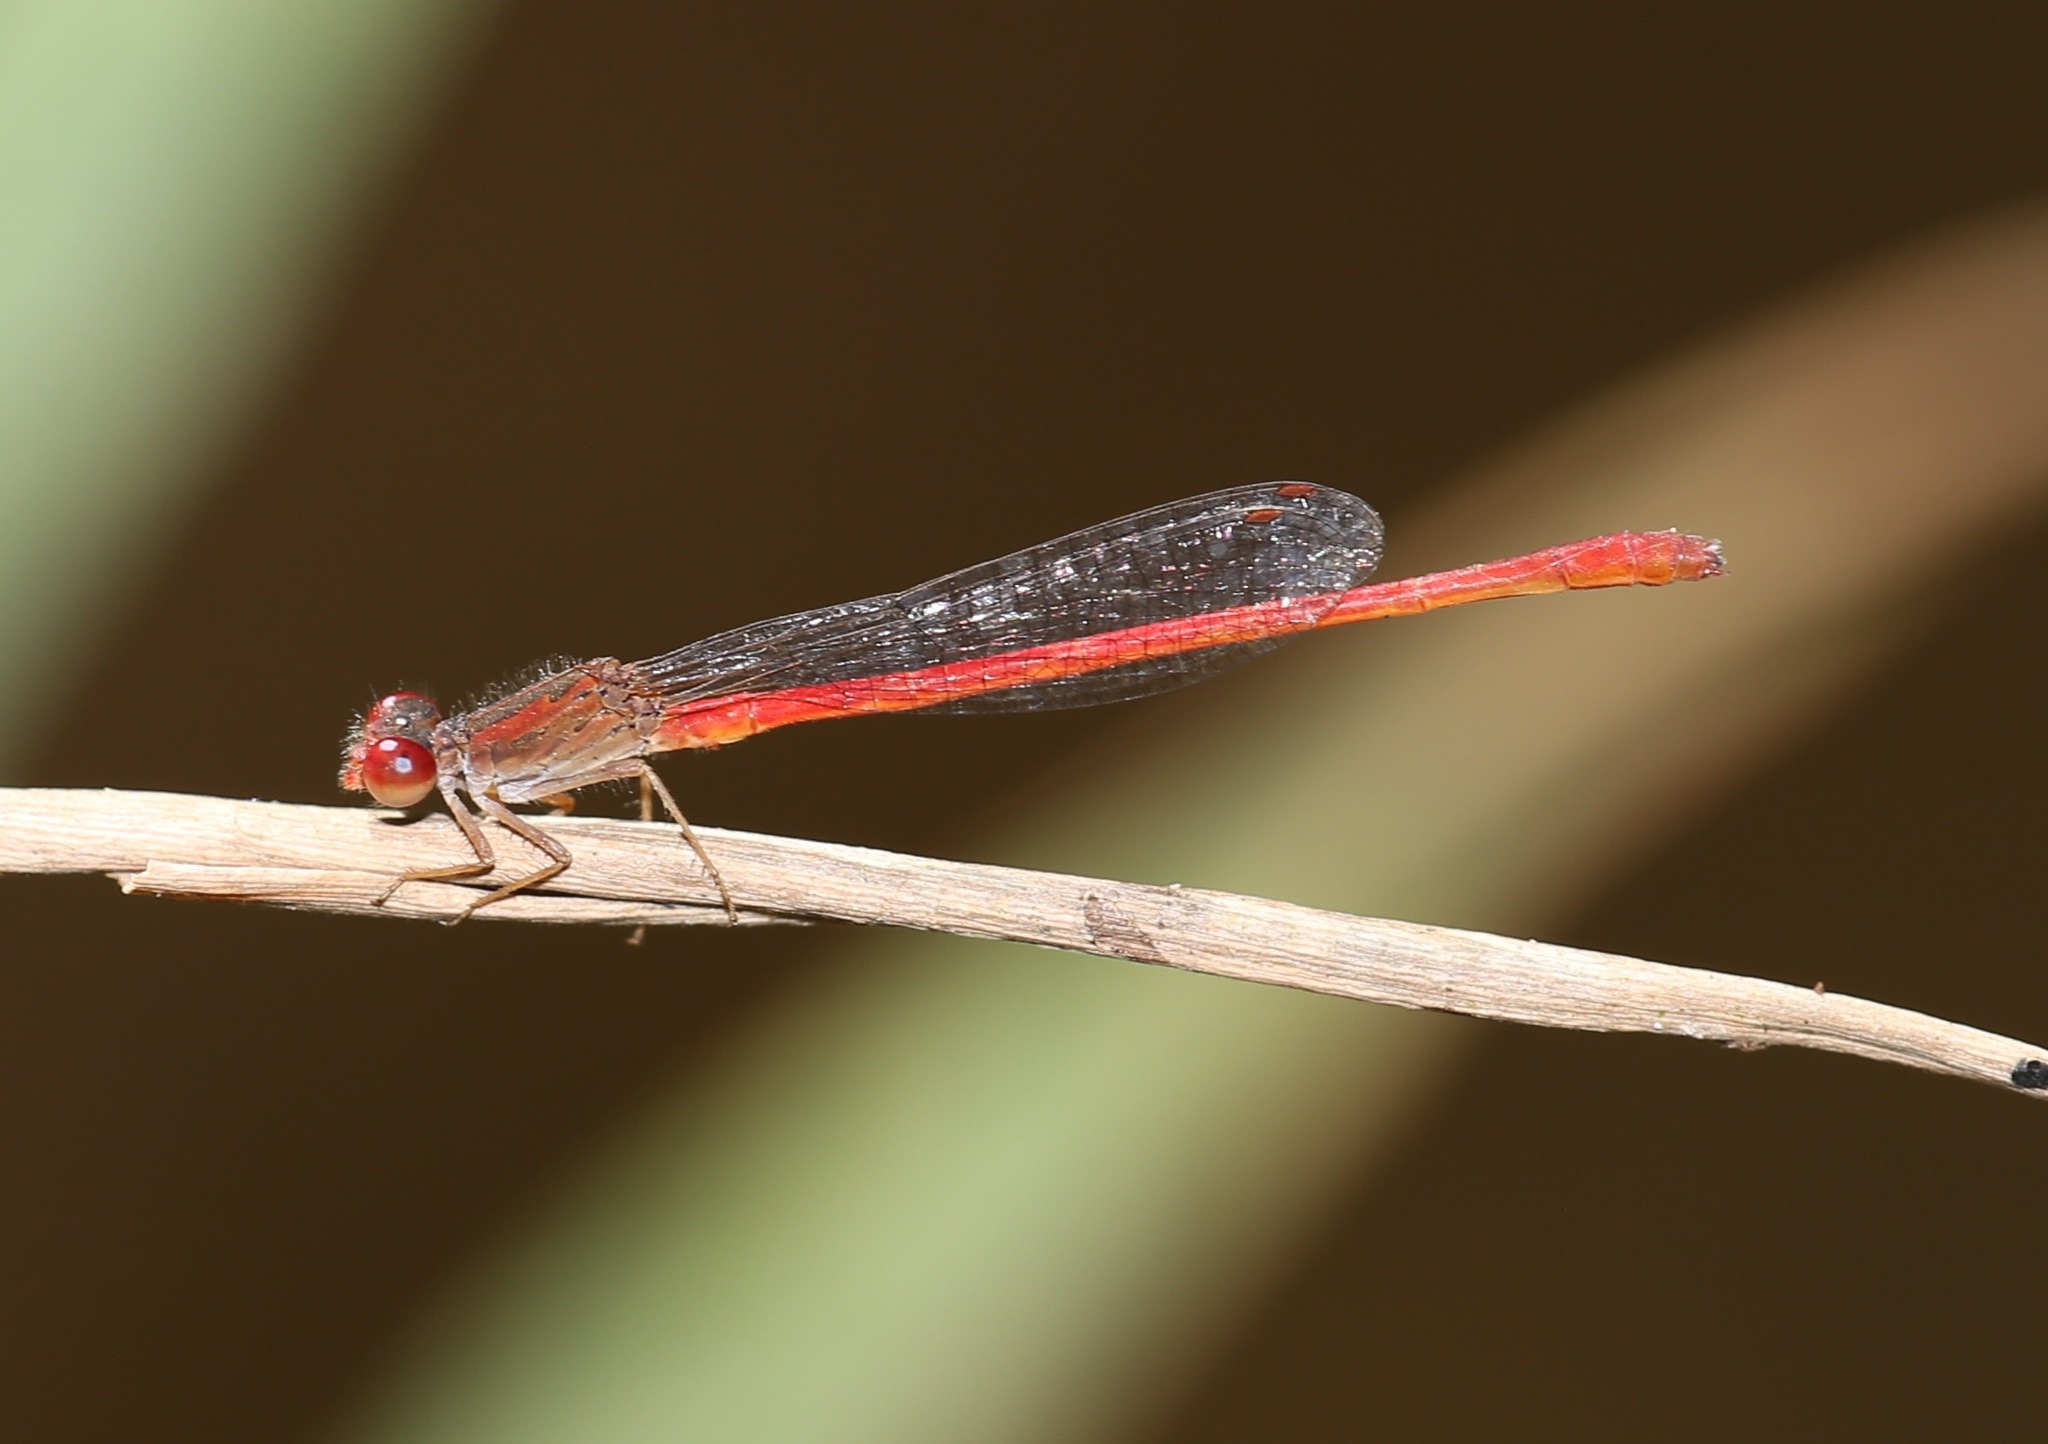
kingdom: Animalia
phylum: Arthropoda
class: Insecta
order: Odonata
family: Coenagrionidae
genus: Telebasis
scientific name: Telebasis salva
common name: Desert firetail
